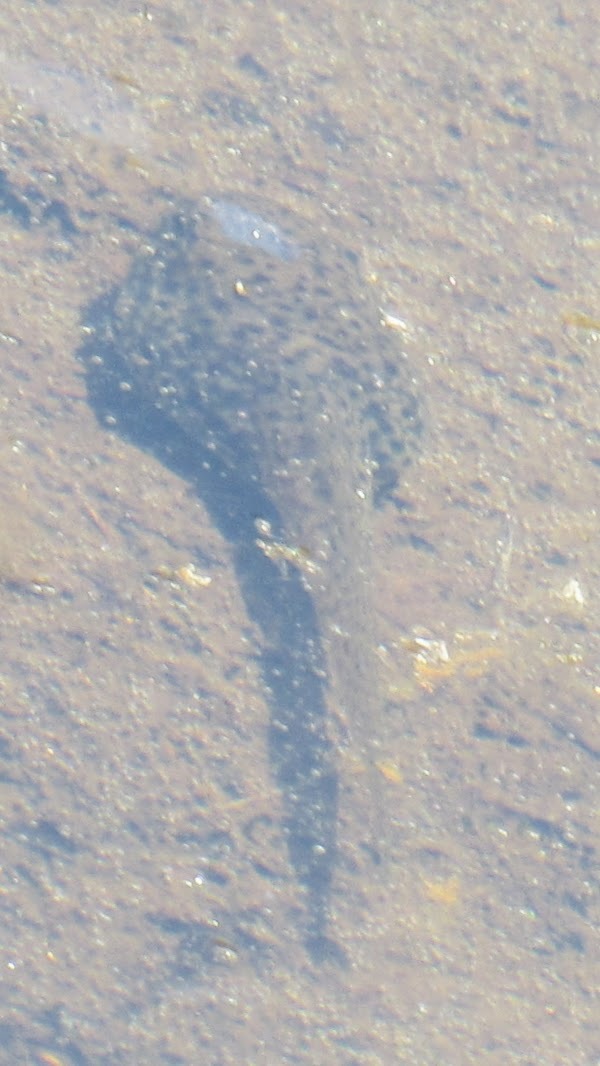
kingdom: Animalia
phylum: Chordata
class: Amphibia
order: Anura
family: Ranidae
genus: Lithobates
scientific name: Lithobates catesbeianus
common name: American bullfrog
